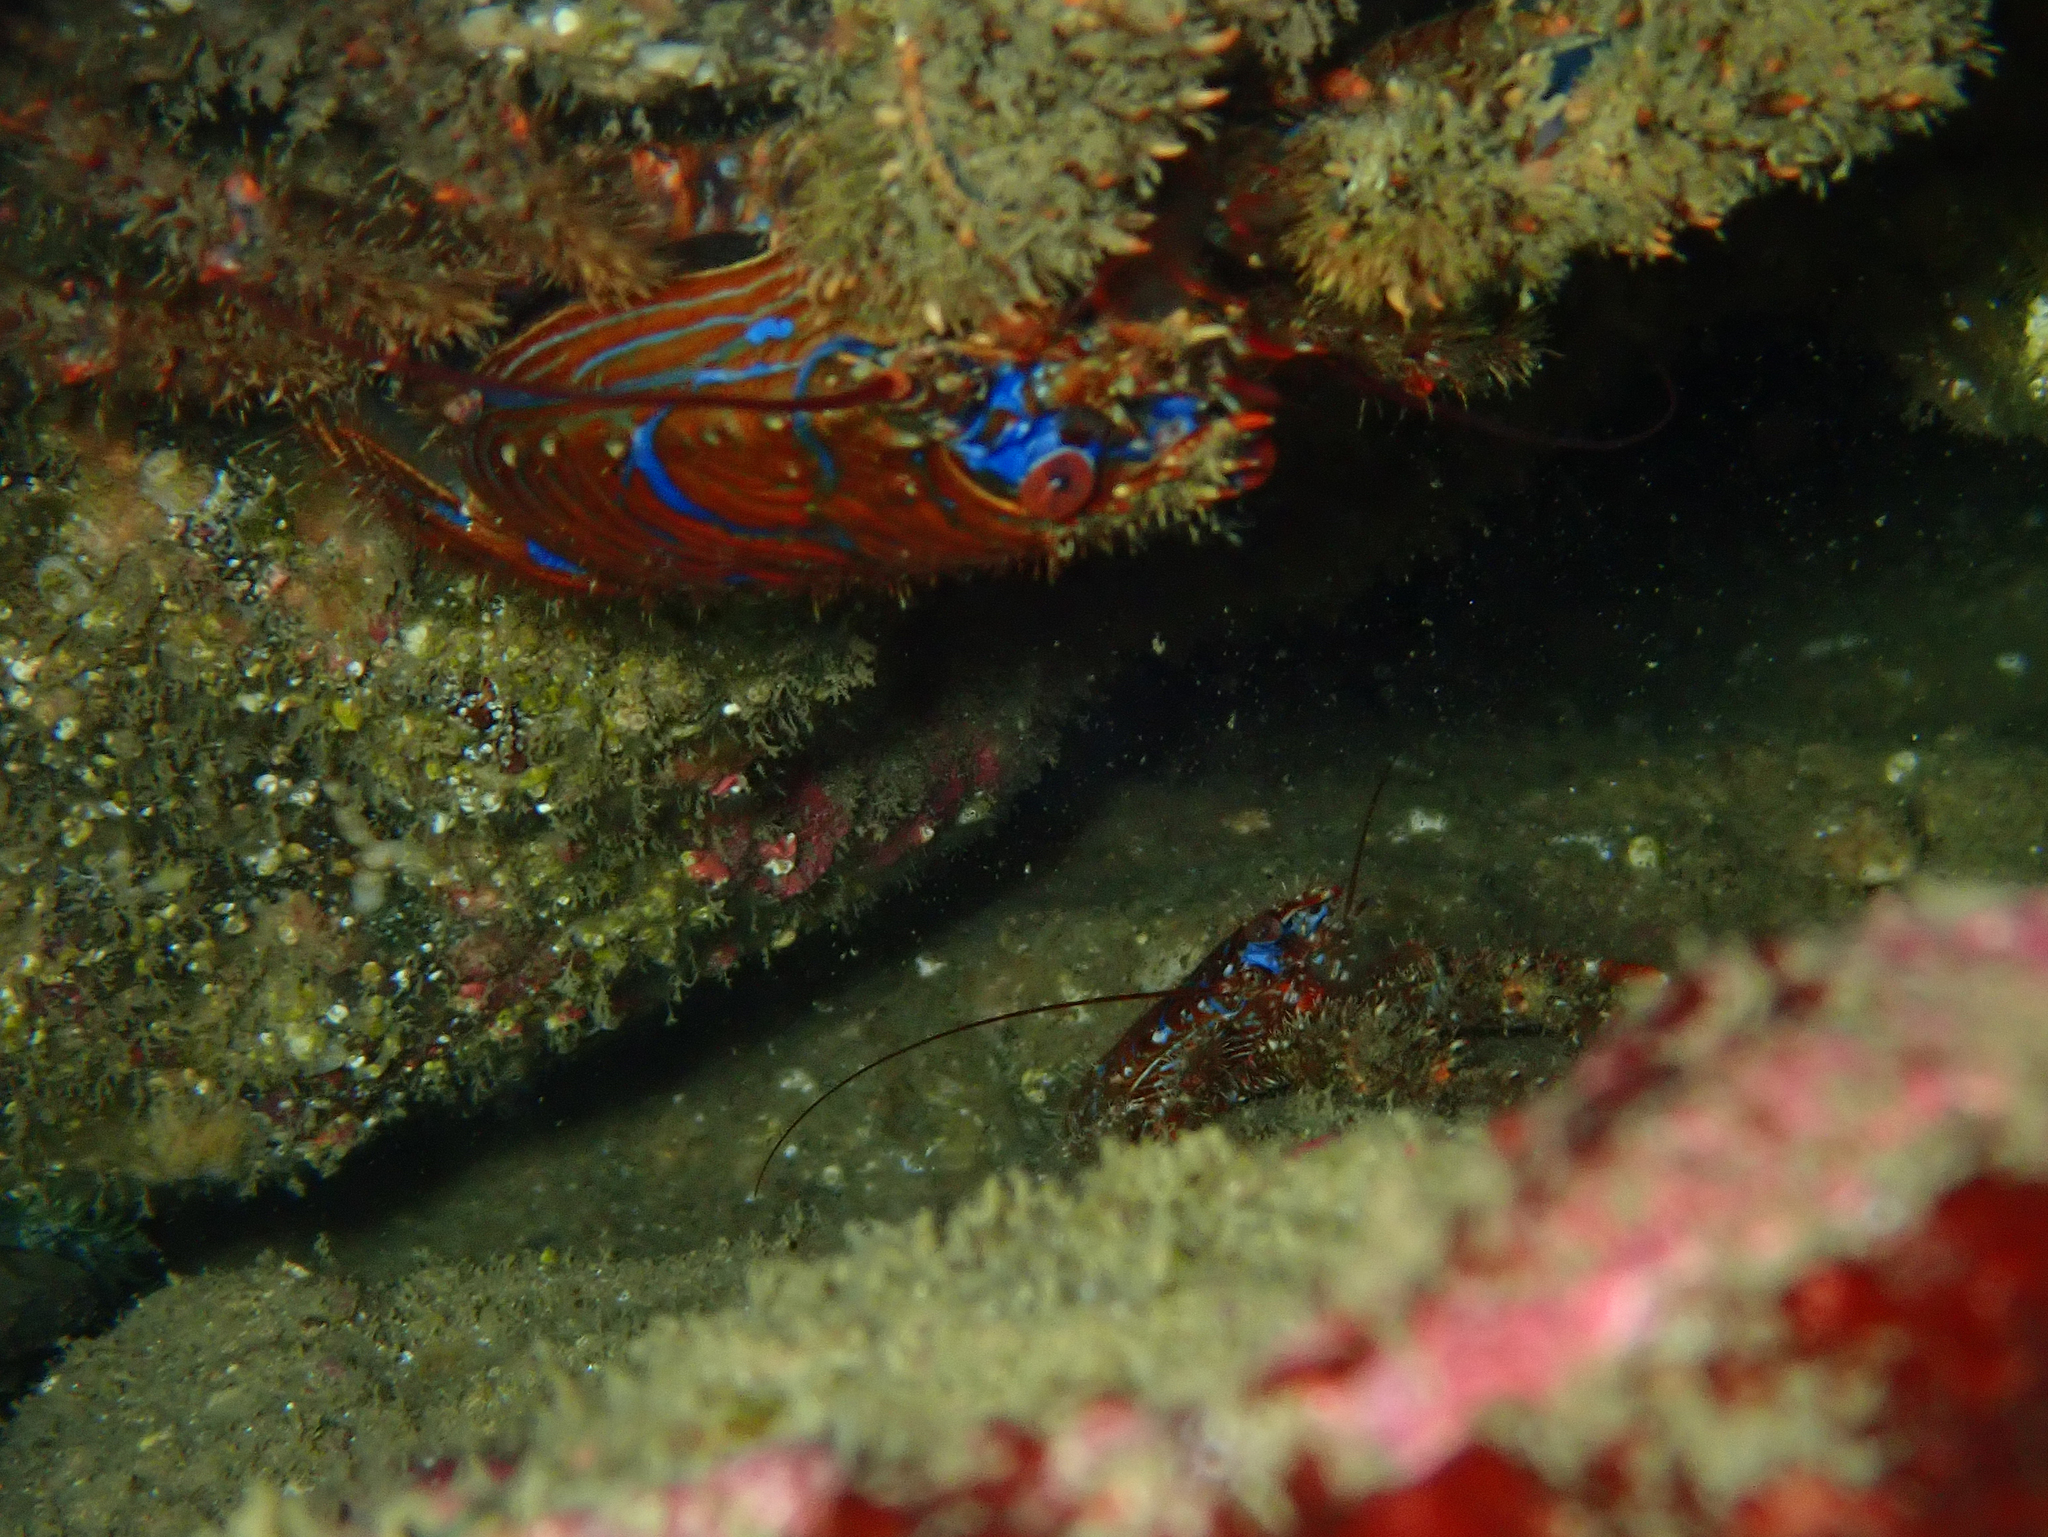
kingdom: Animalia
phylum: Arthropoda
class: Malacostraca
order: Decapoda
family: Galatheidae
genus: Galathea
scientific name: Galathea strigosa
